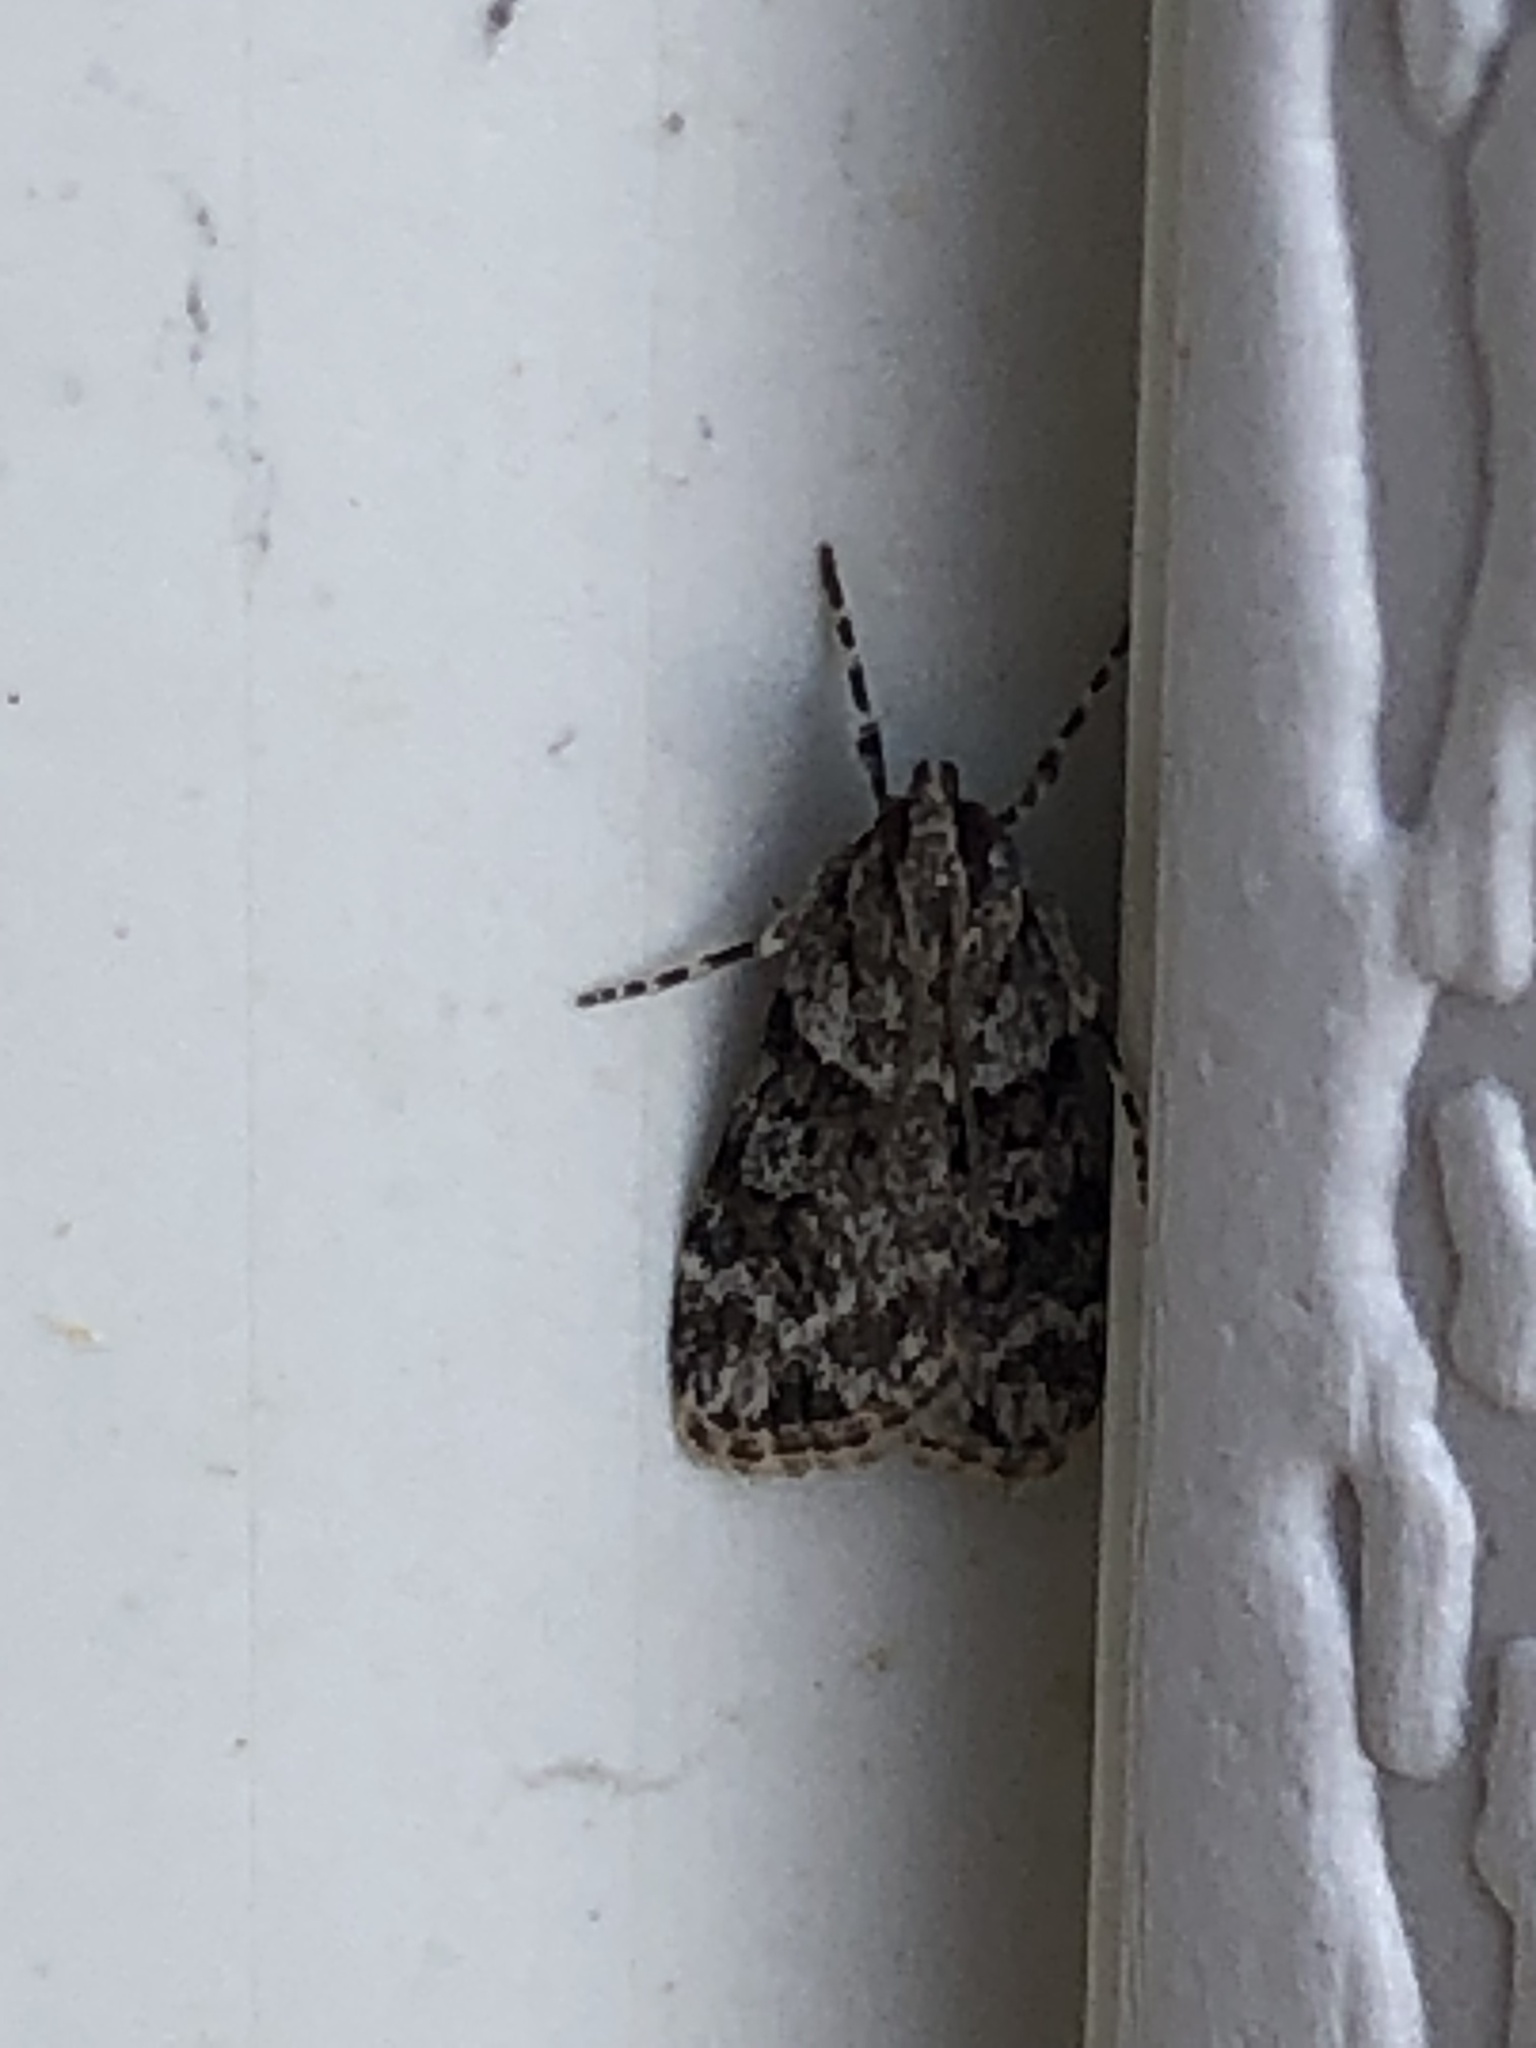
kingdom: Animalia
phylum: Arthropoda
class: Insecta
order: Lepidoptera
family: Crambidae
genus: Scoparia
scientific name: Scoparia biplagialis
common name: Double-striped scoparia moth
